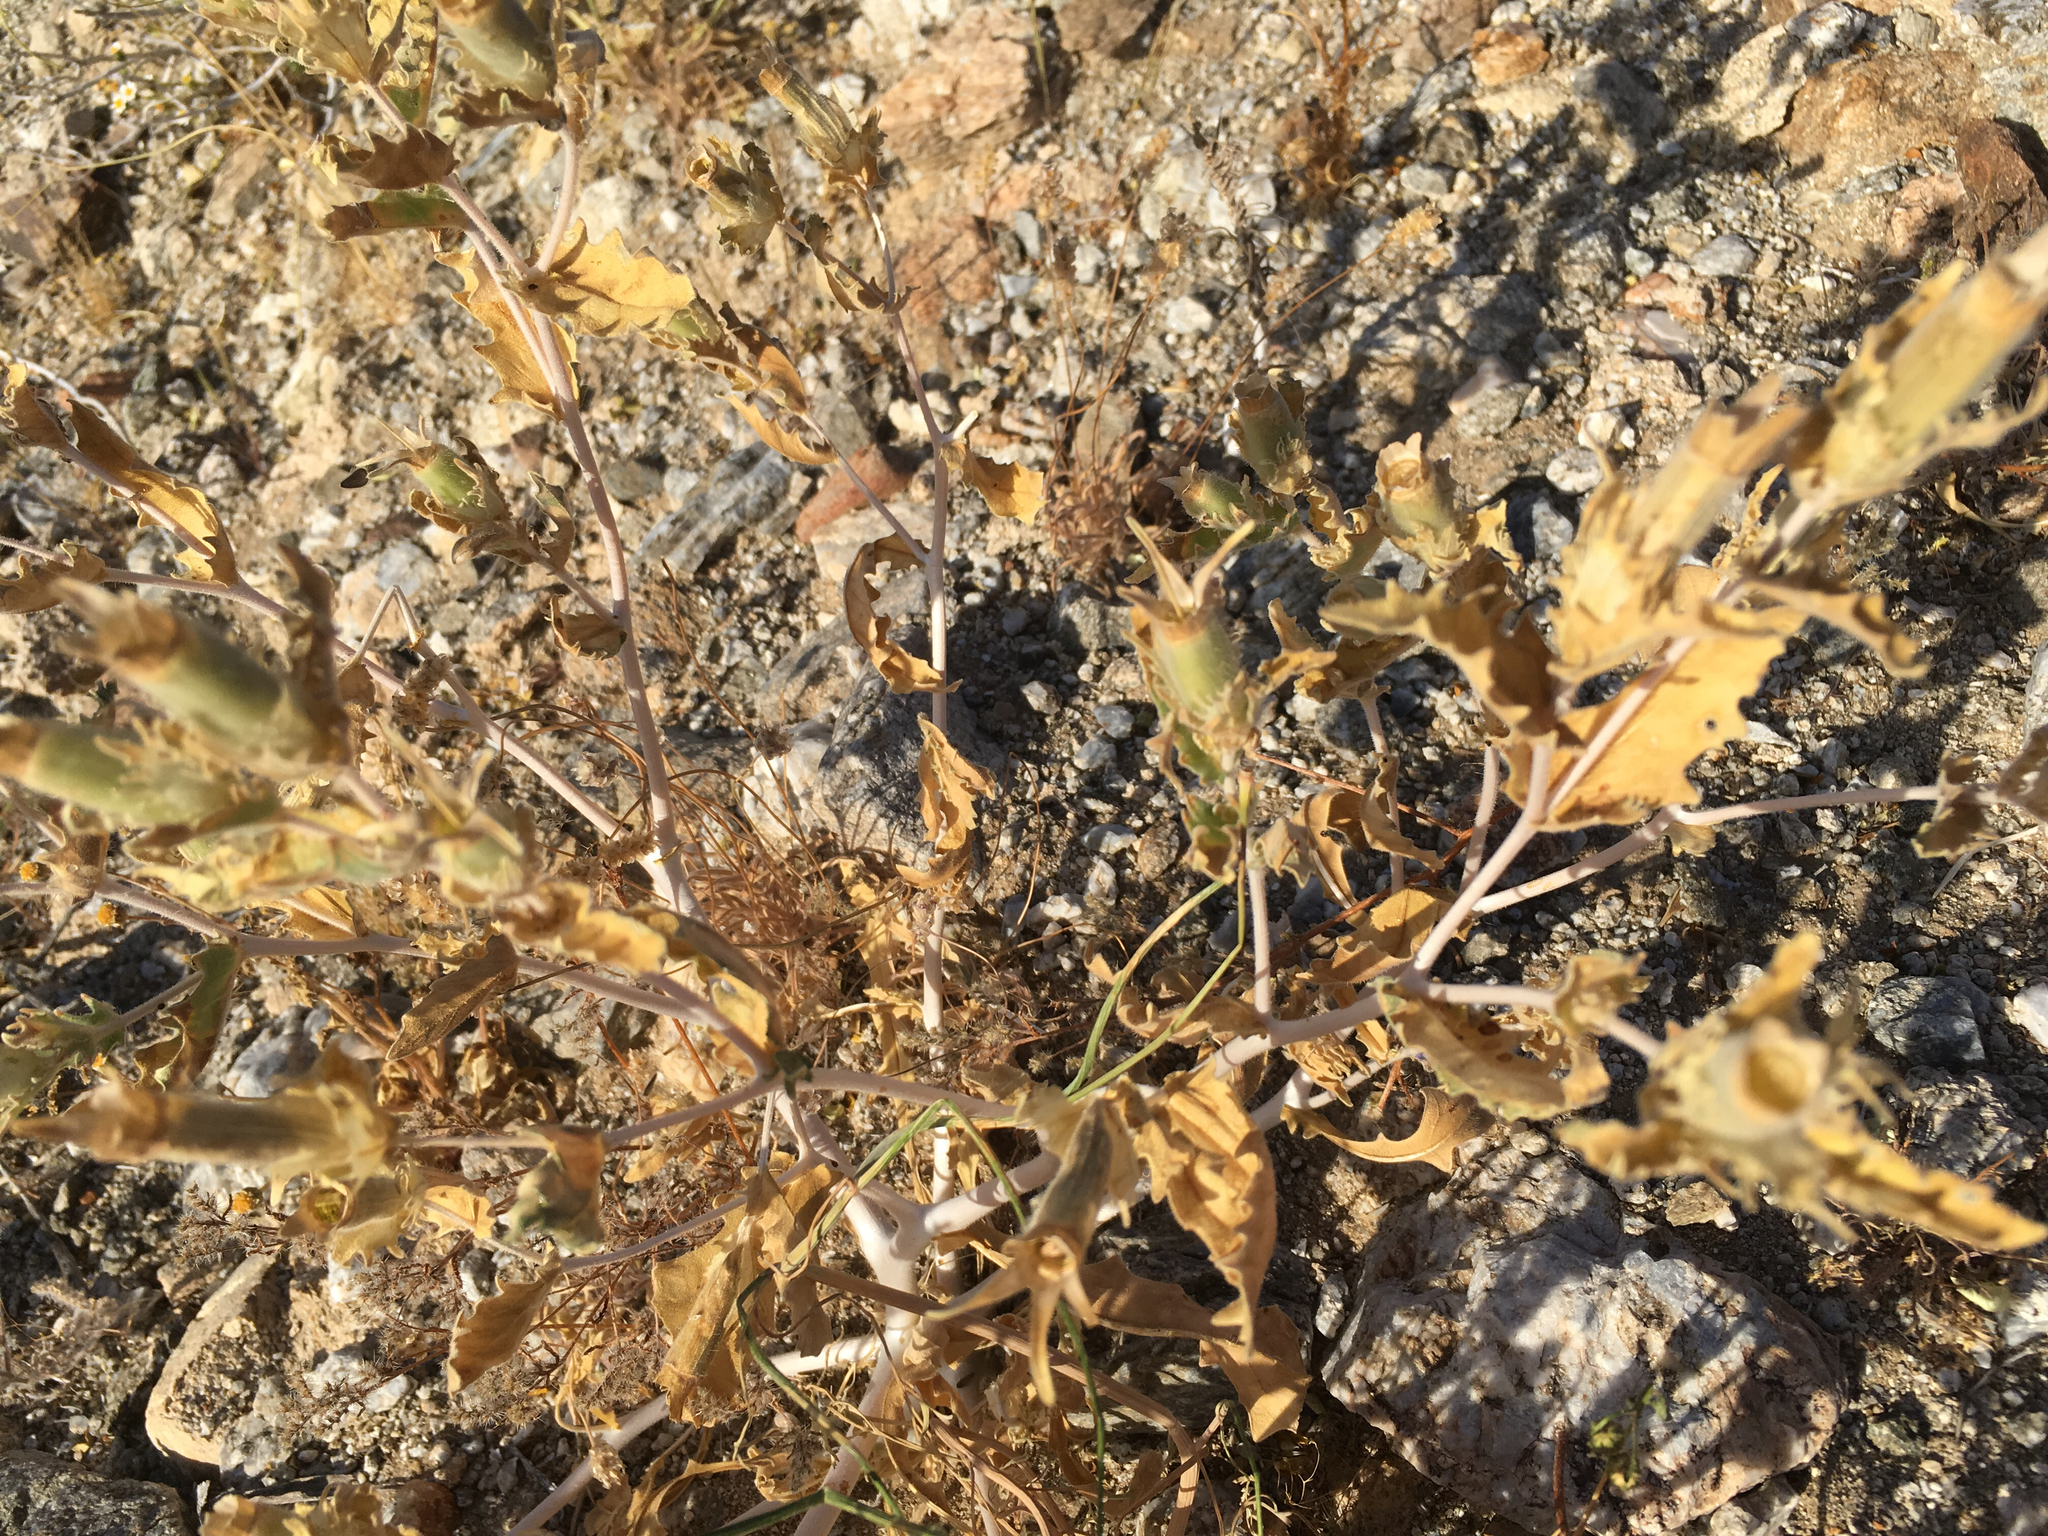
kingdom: Plantae
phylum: Tracheophyta
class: Magnoliopsida
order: Cornales
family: Loasaceae
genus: Mentzelia
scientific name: Mentzelia involucrata
